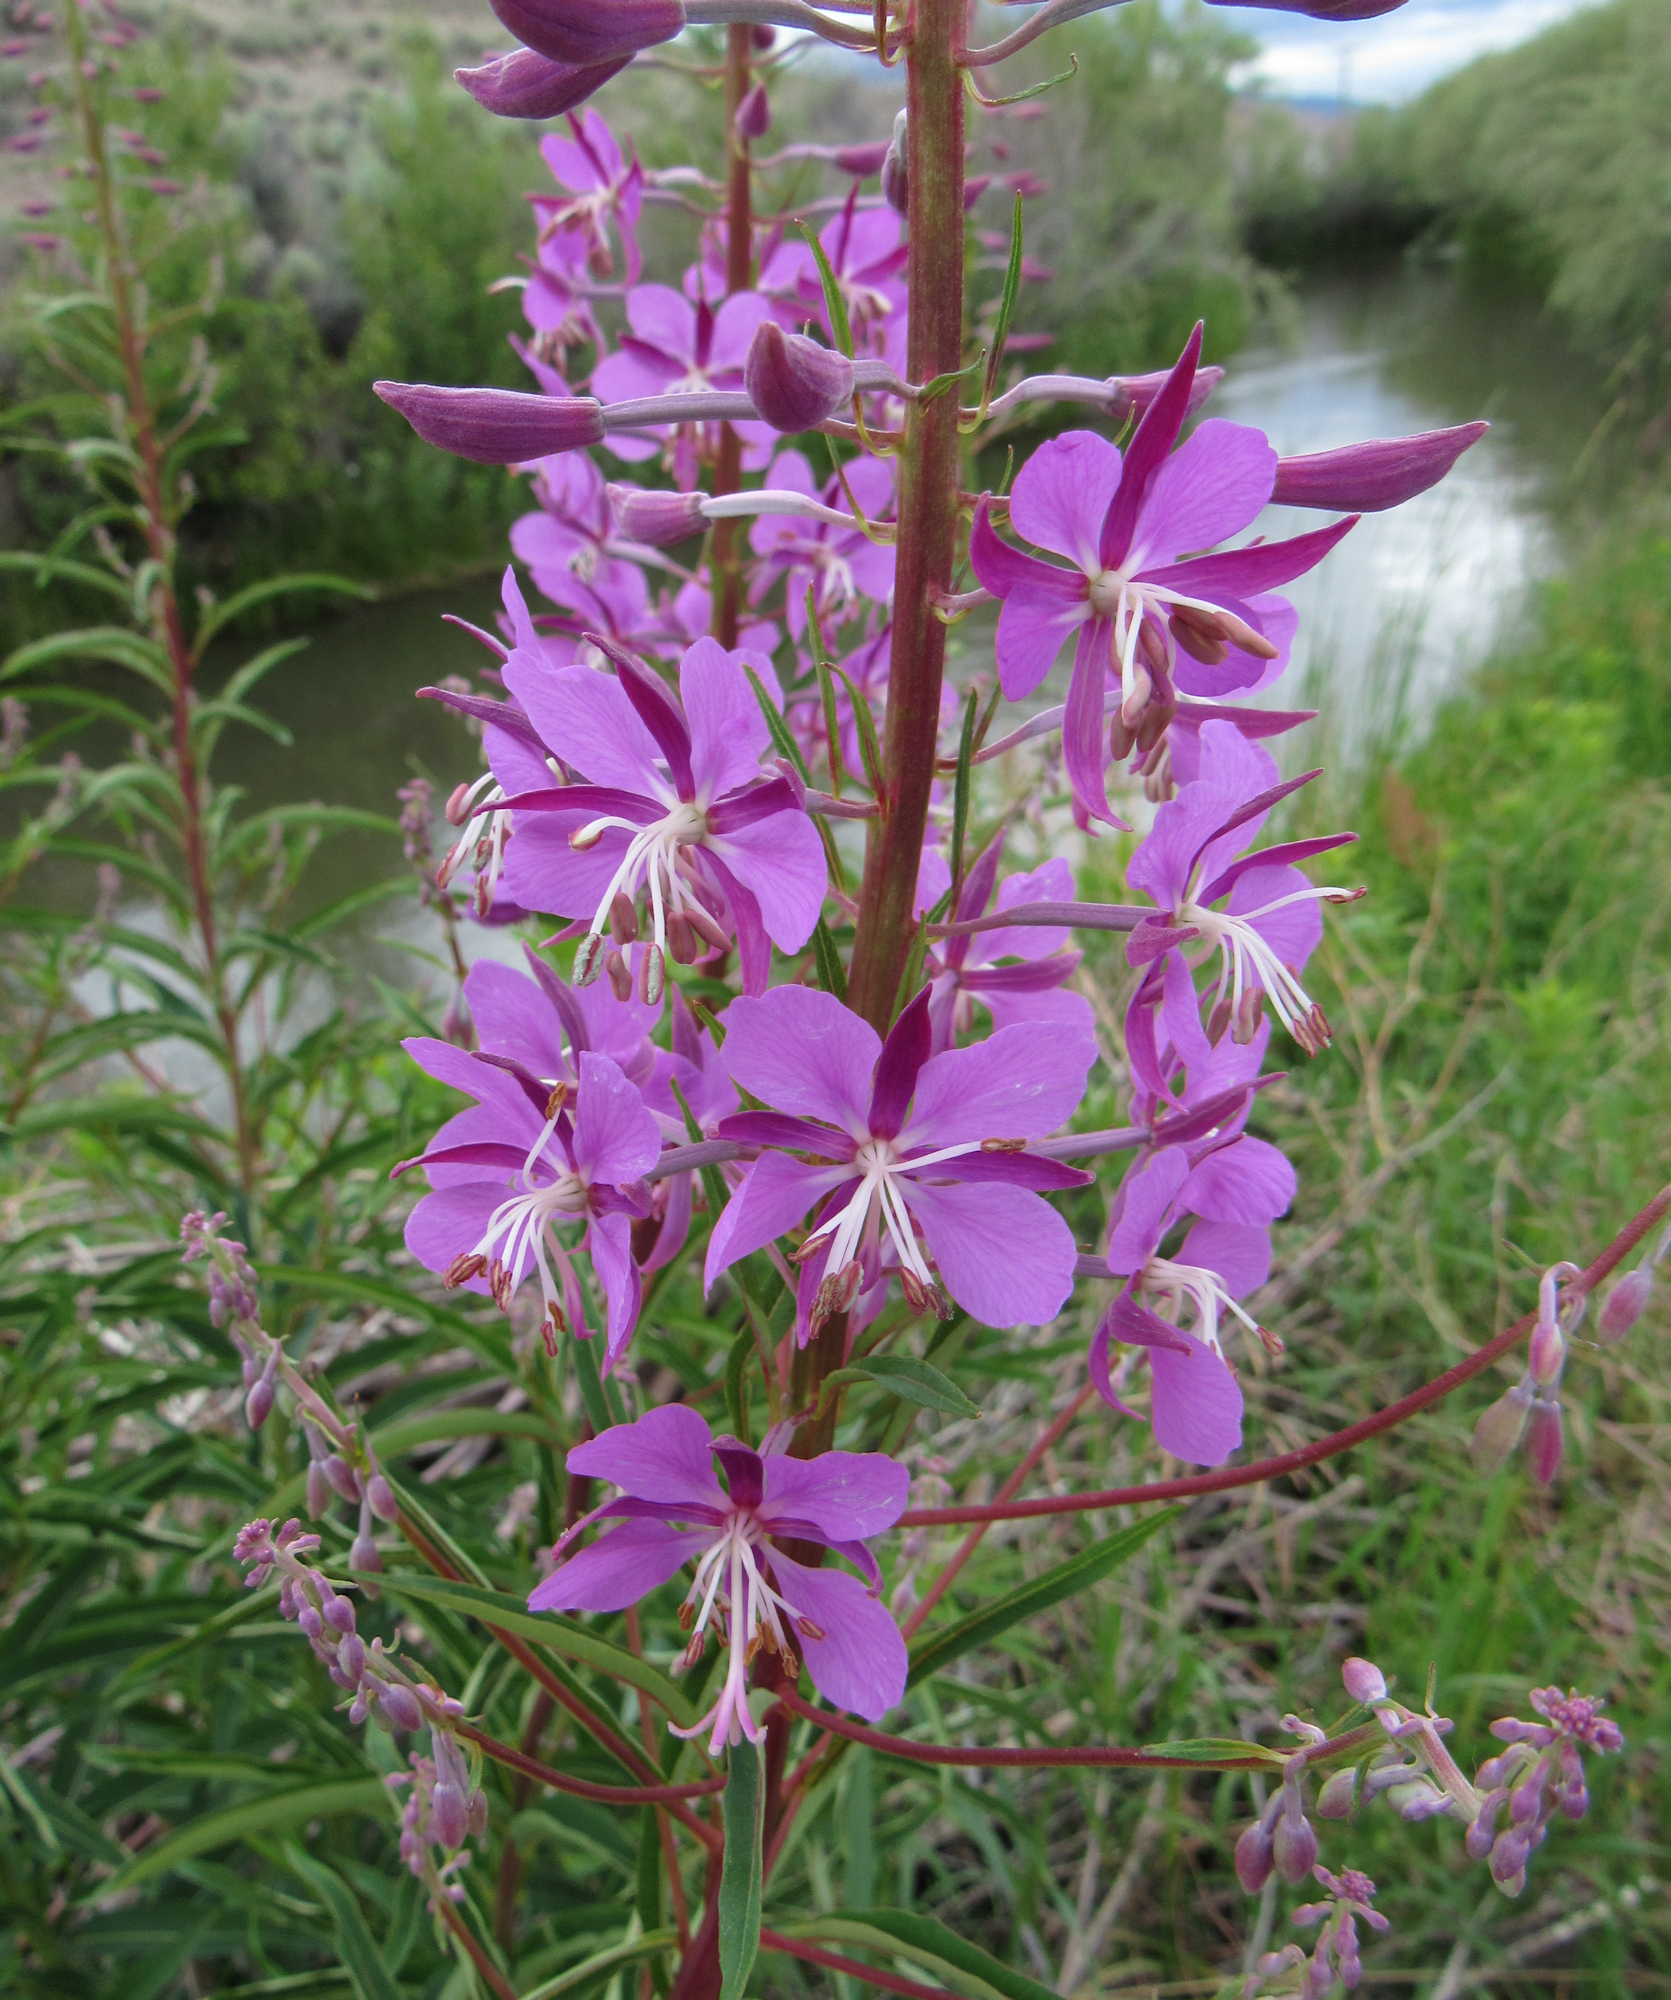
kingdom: Plantae
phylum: Tracheophyta
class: Magnoliopsida
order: Myrtales
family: Onagraceae
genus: Chamaenerion
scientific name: Chamaenerion angustifolium
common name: Fireweed
